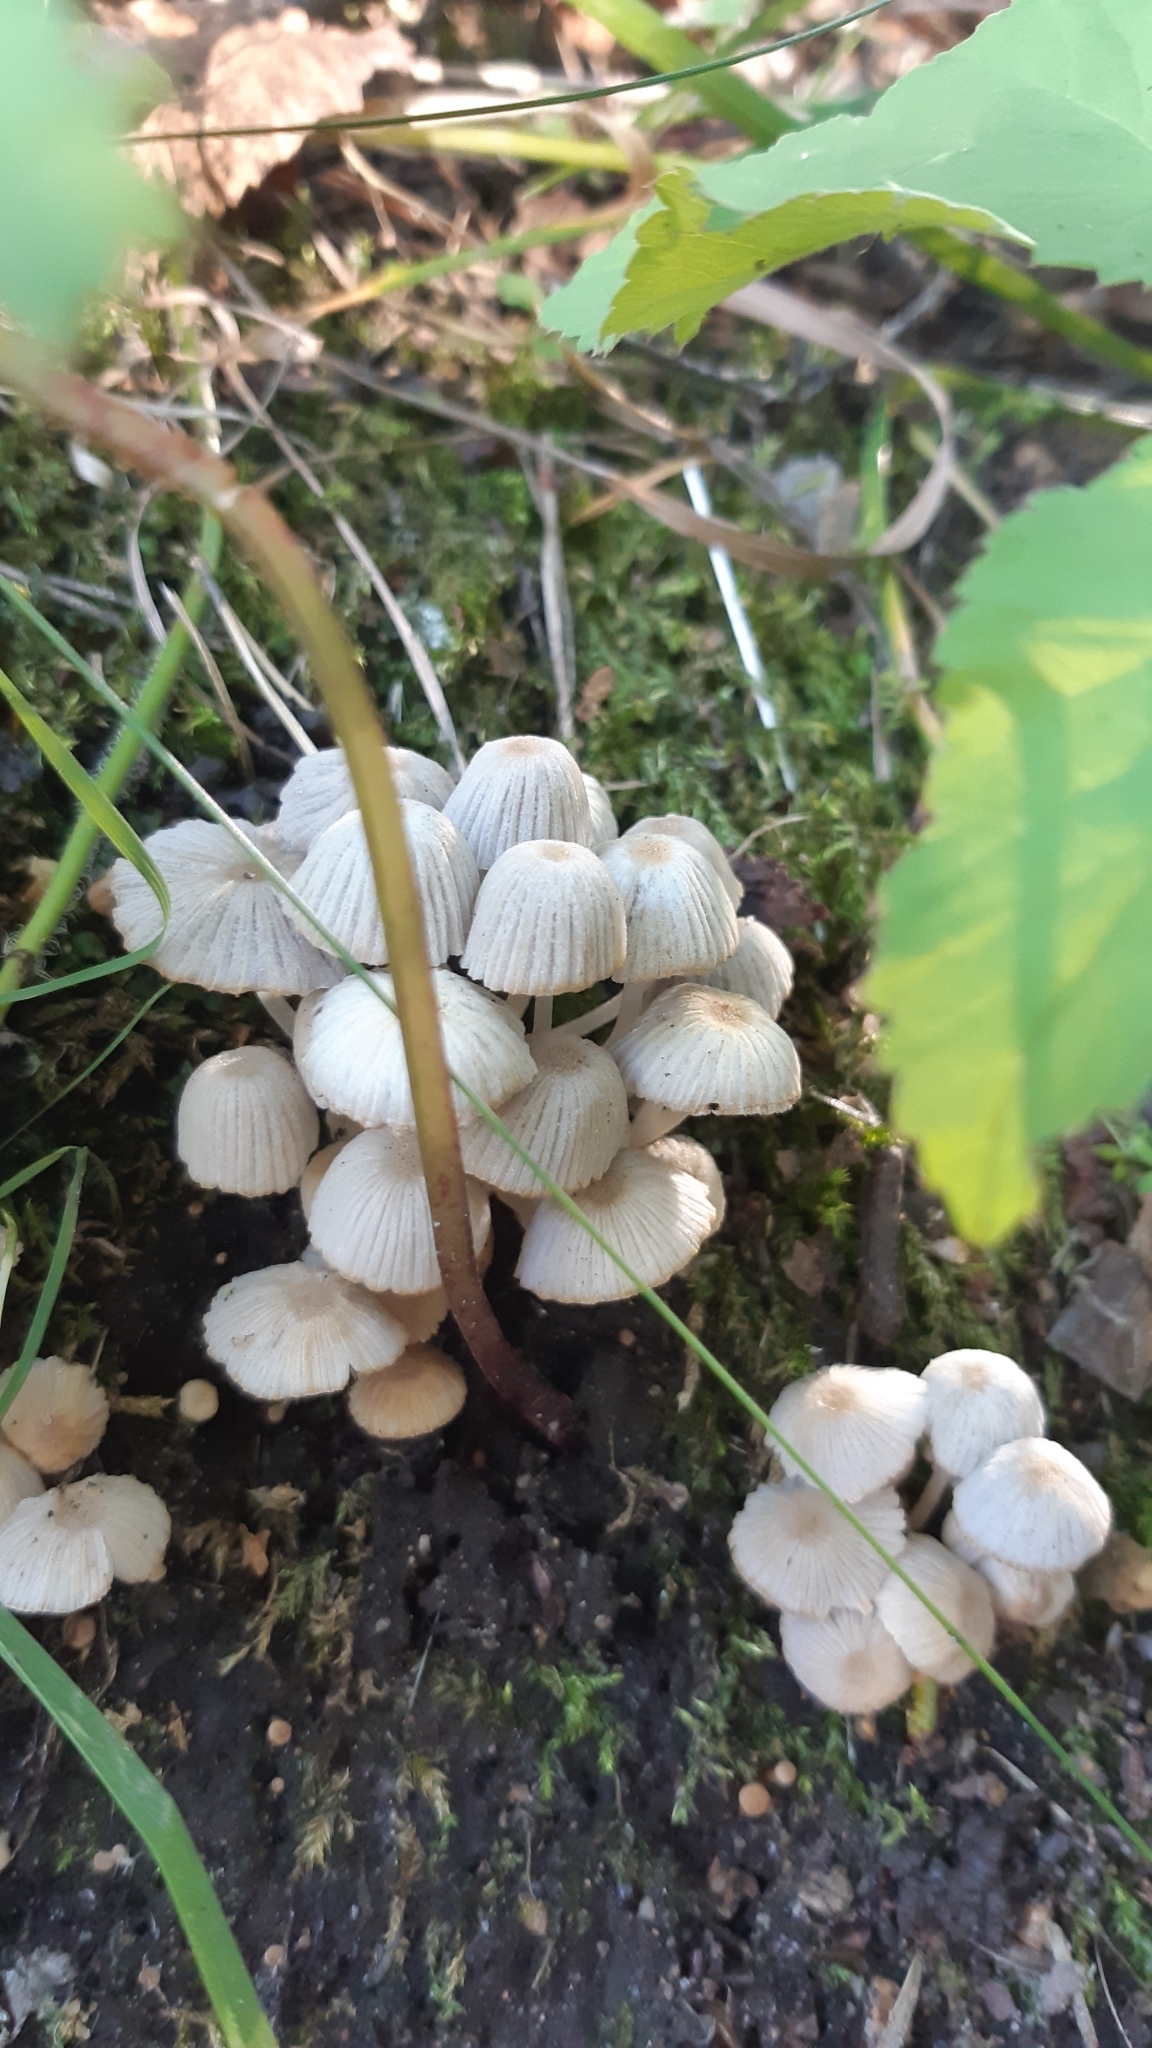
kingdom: Fungi
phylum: Basidiomycota
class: Agaricomycetes
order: Agaricales
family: Psathyrellaceae
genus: Coprinellus
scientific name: Coprinellus disseminatus
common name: Fairies' bonnets
